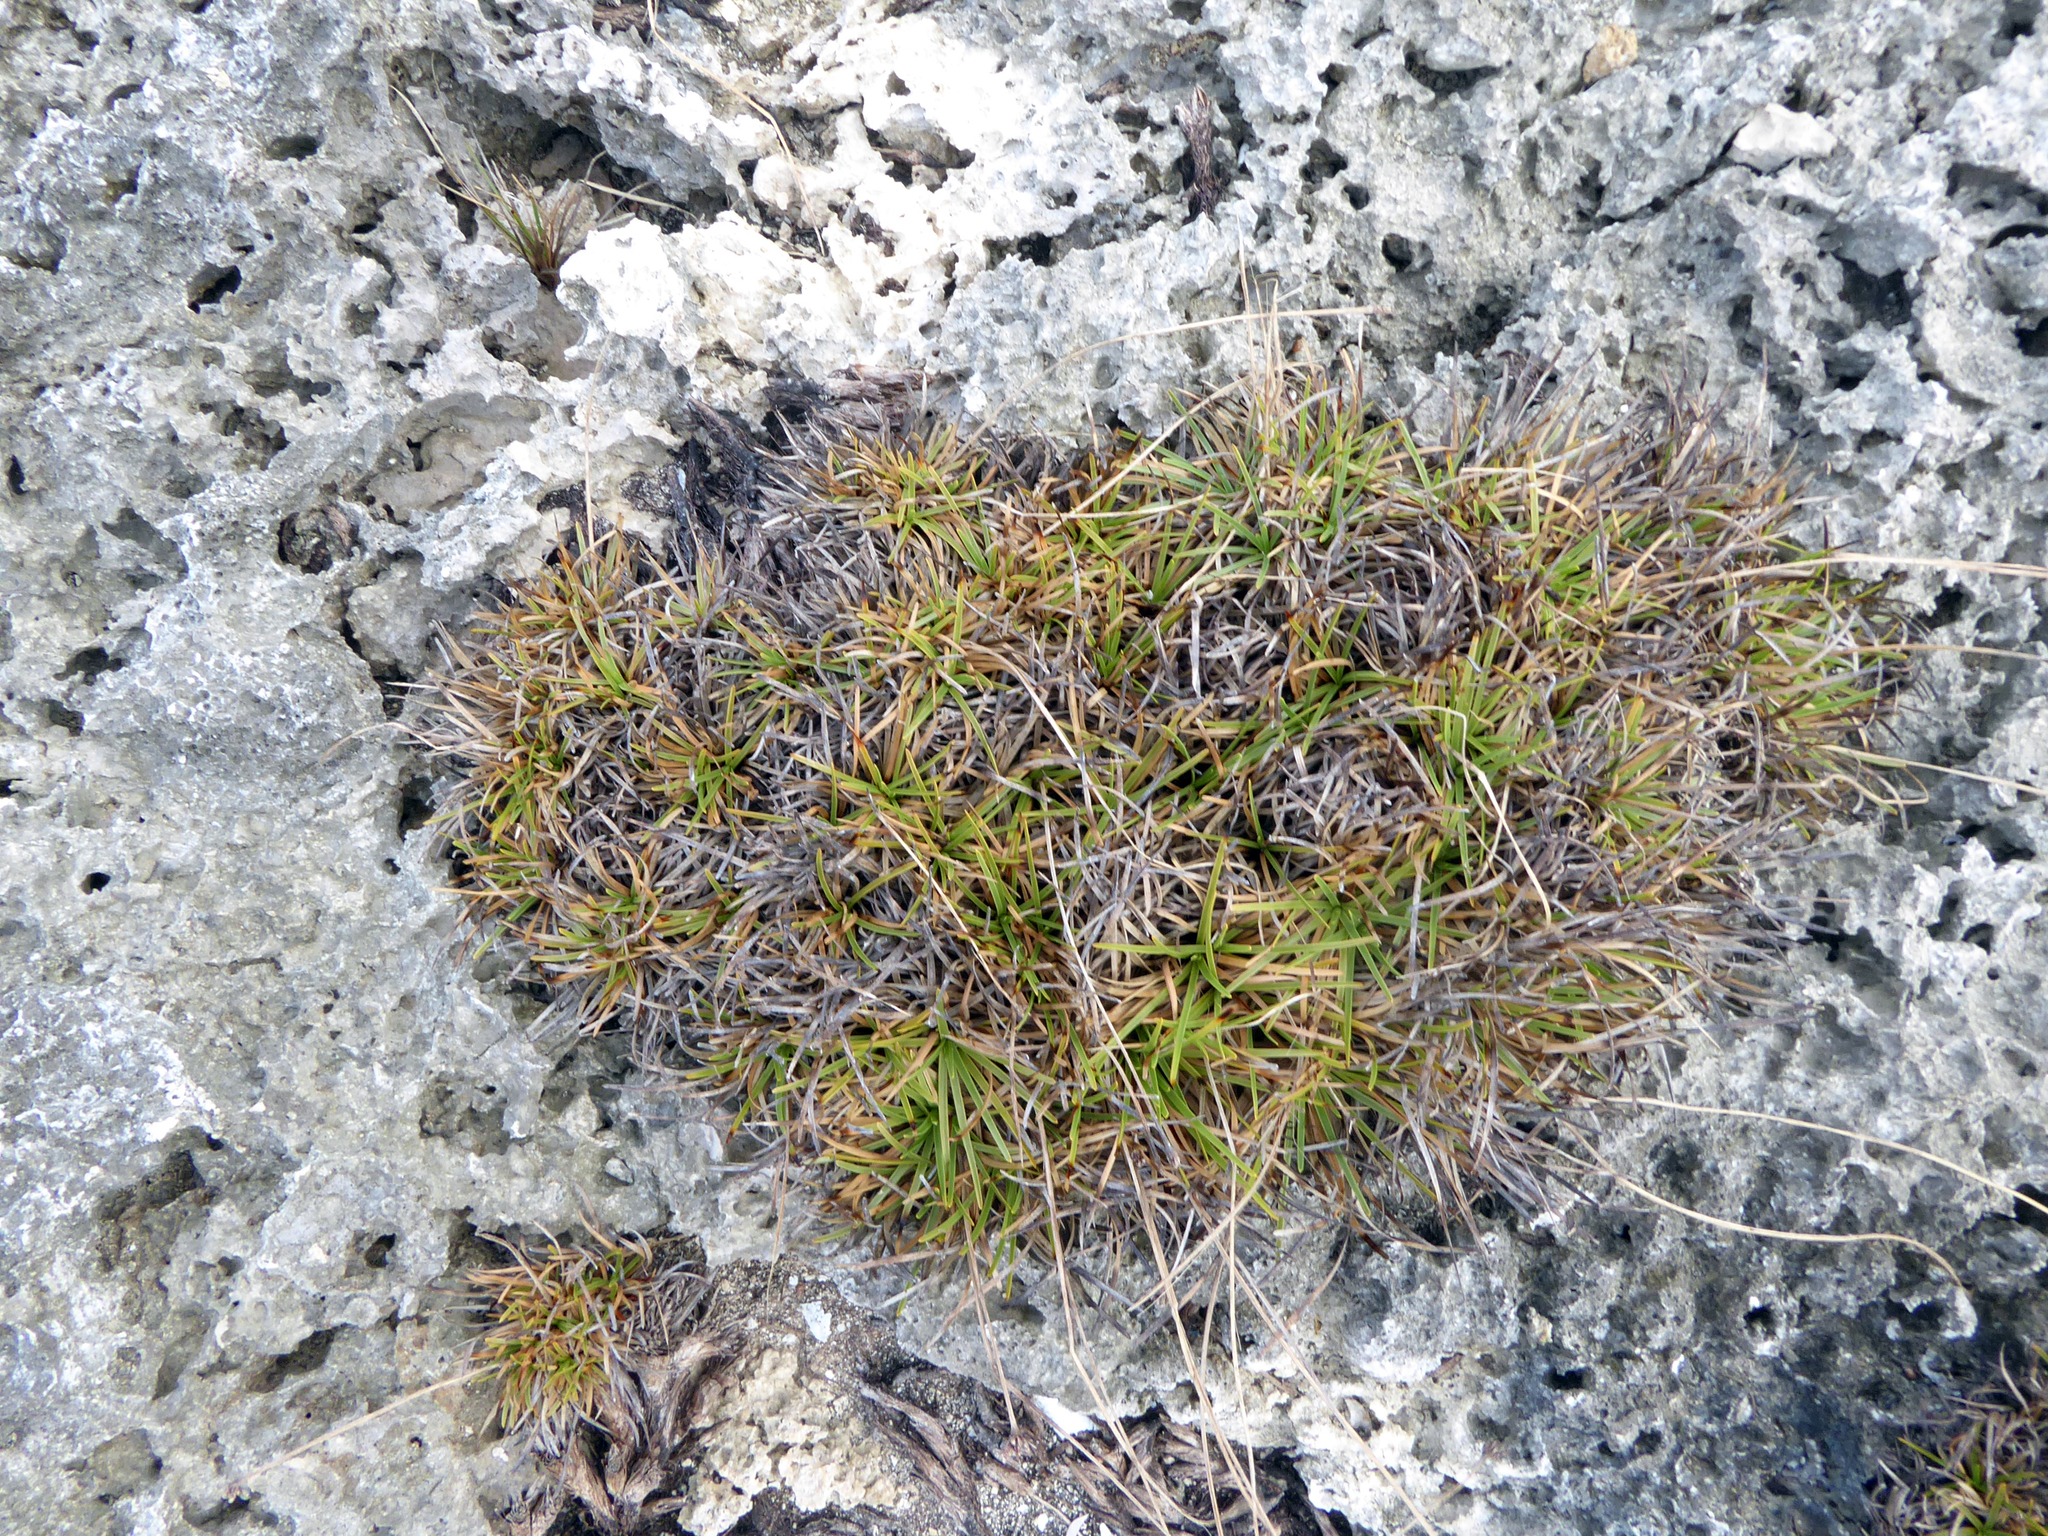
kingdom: Plantae
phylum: Tracheophyta
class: Liliopsida
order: Poales
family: Cyperaceae
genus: Fimbristylis
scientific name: Fimbristylis cymosa
